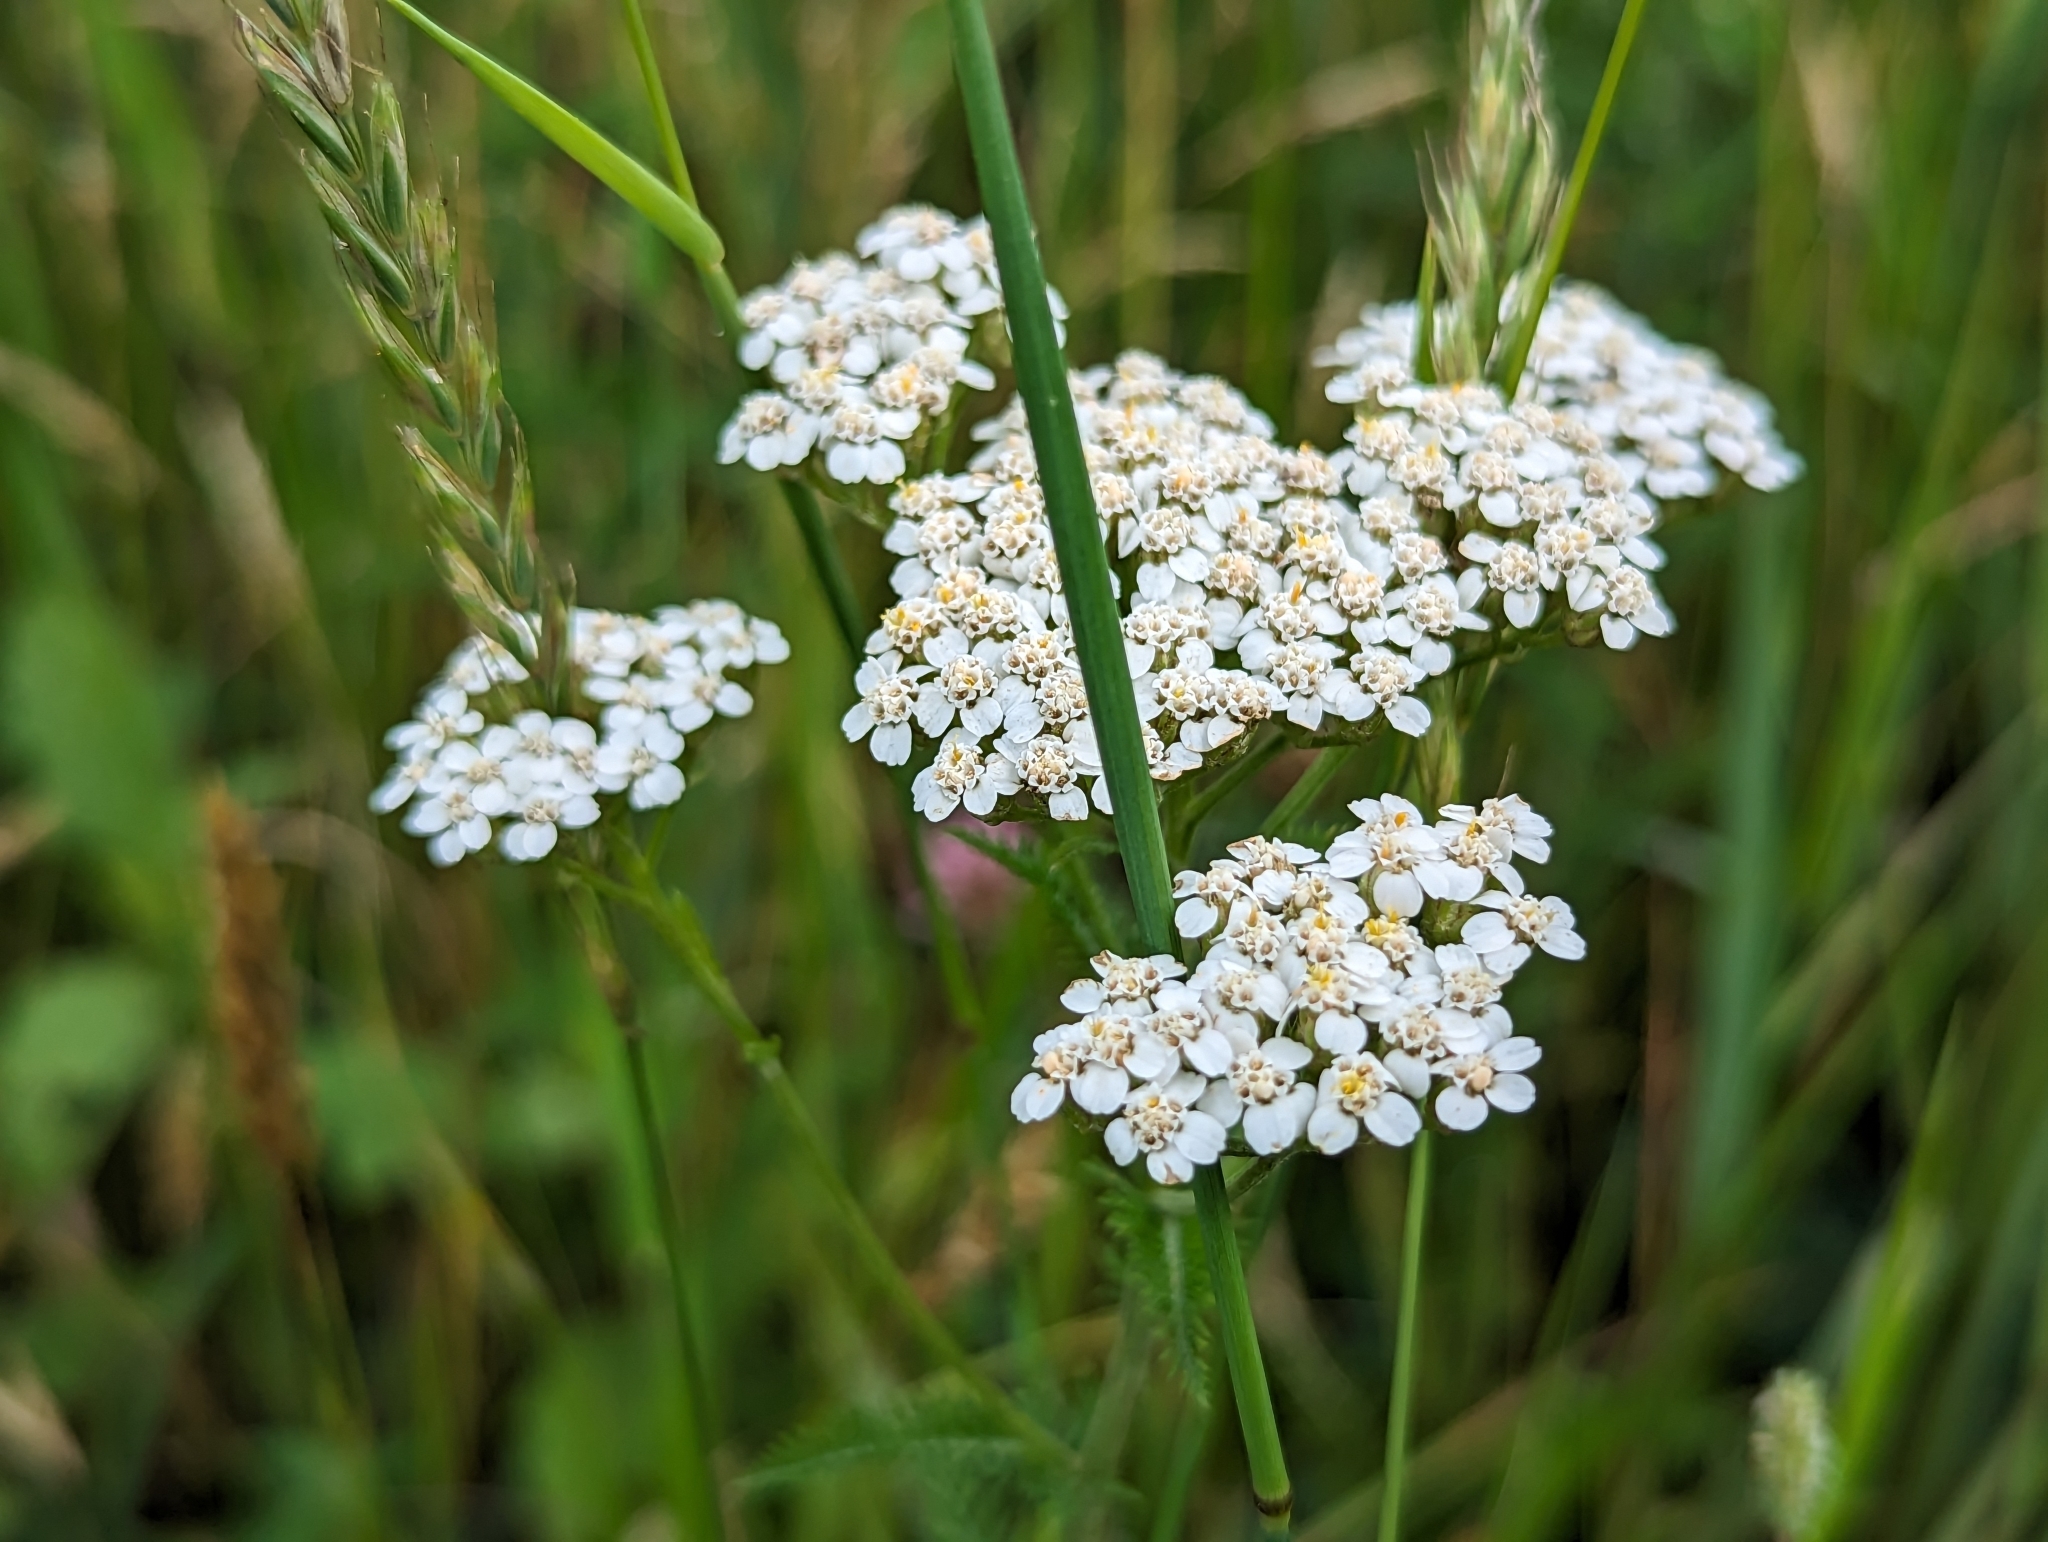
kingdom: Plantae
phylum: Tracheophyta
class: Magnoliopsida
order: Asterales
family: Asteraceae
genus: Achillea
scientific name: Achillea millefolium
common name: Yarrow
